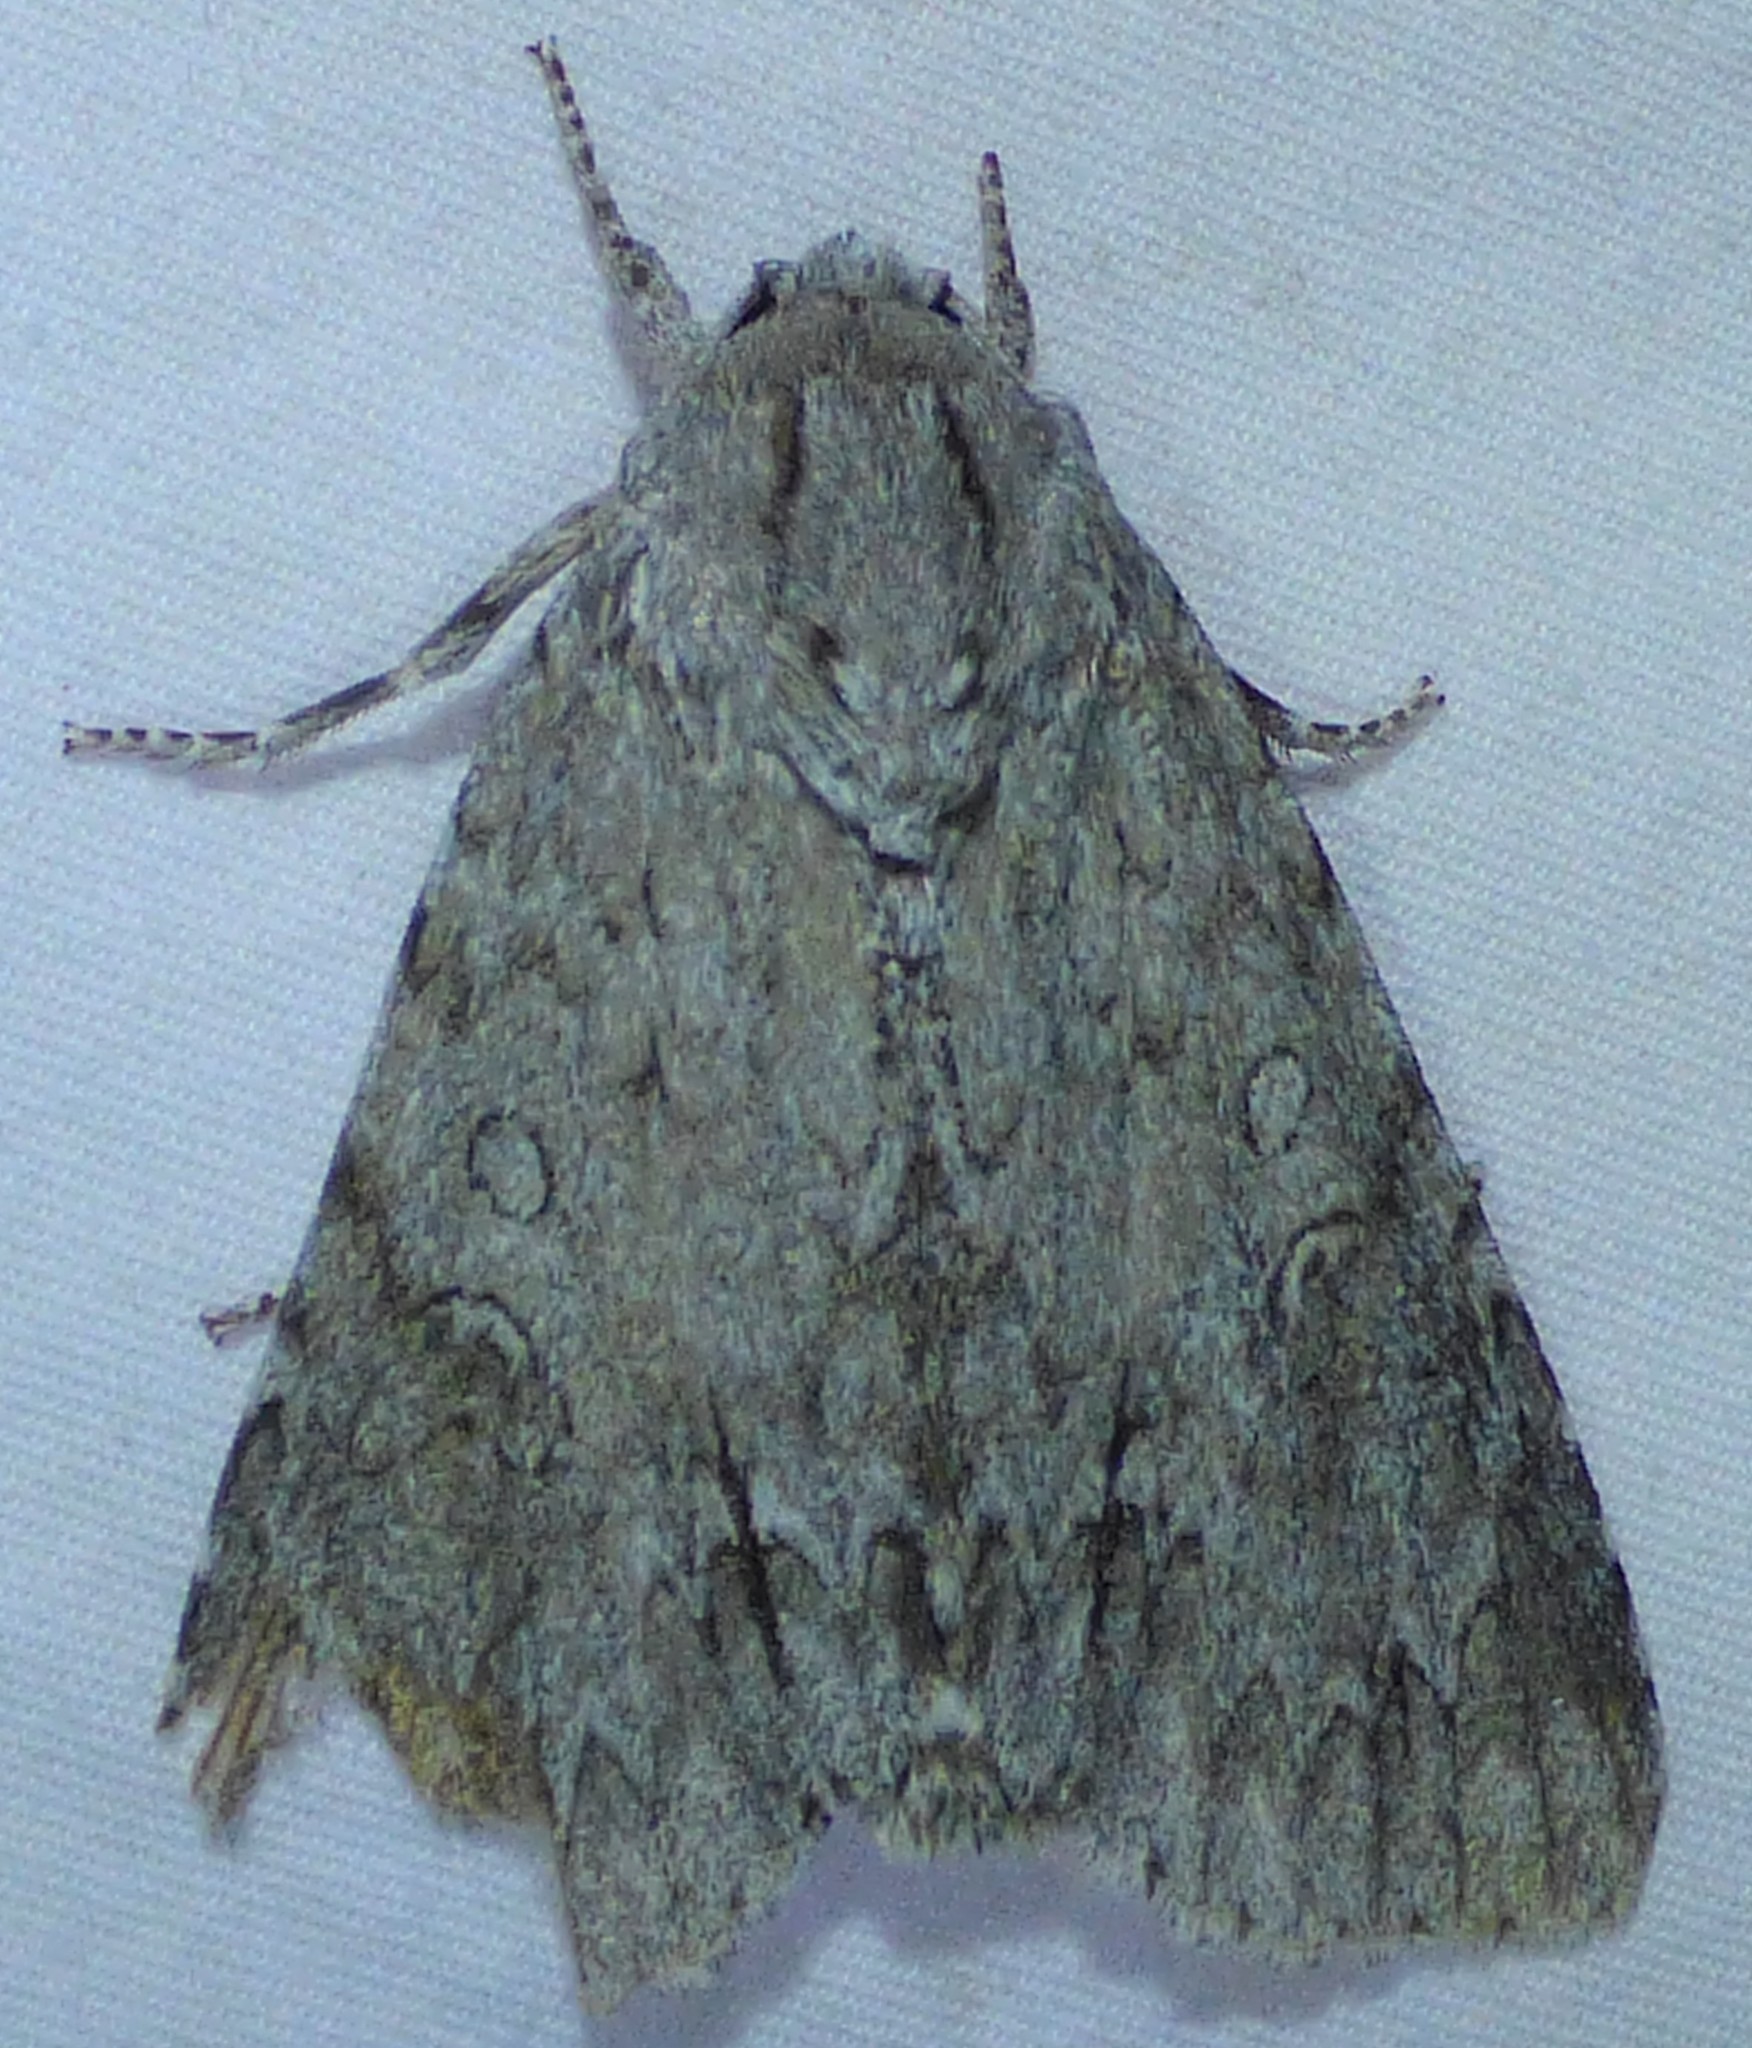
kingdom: Animalia
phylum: Arthropoda
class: Insecta
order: Lepidoptera
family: Noctuidae
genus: Acronicta
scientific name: Acronicta impleta
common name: Powdered dagger
